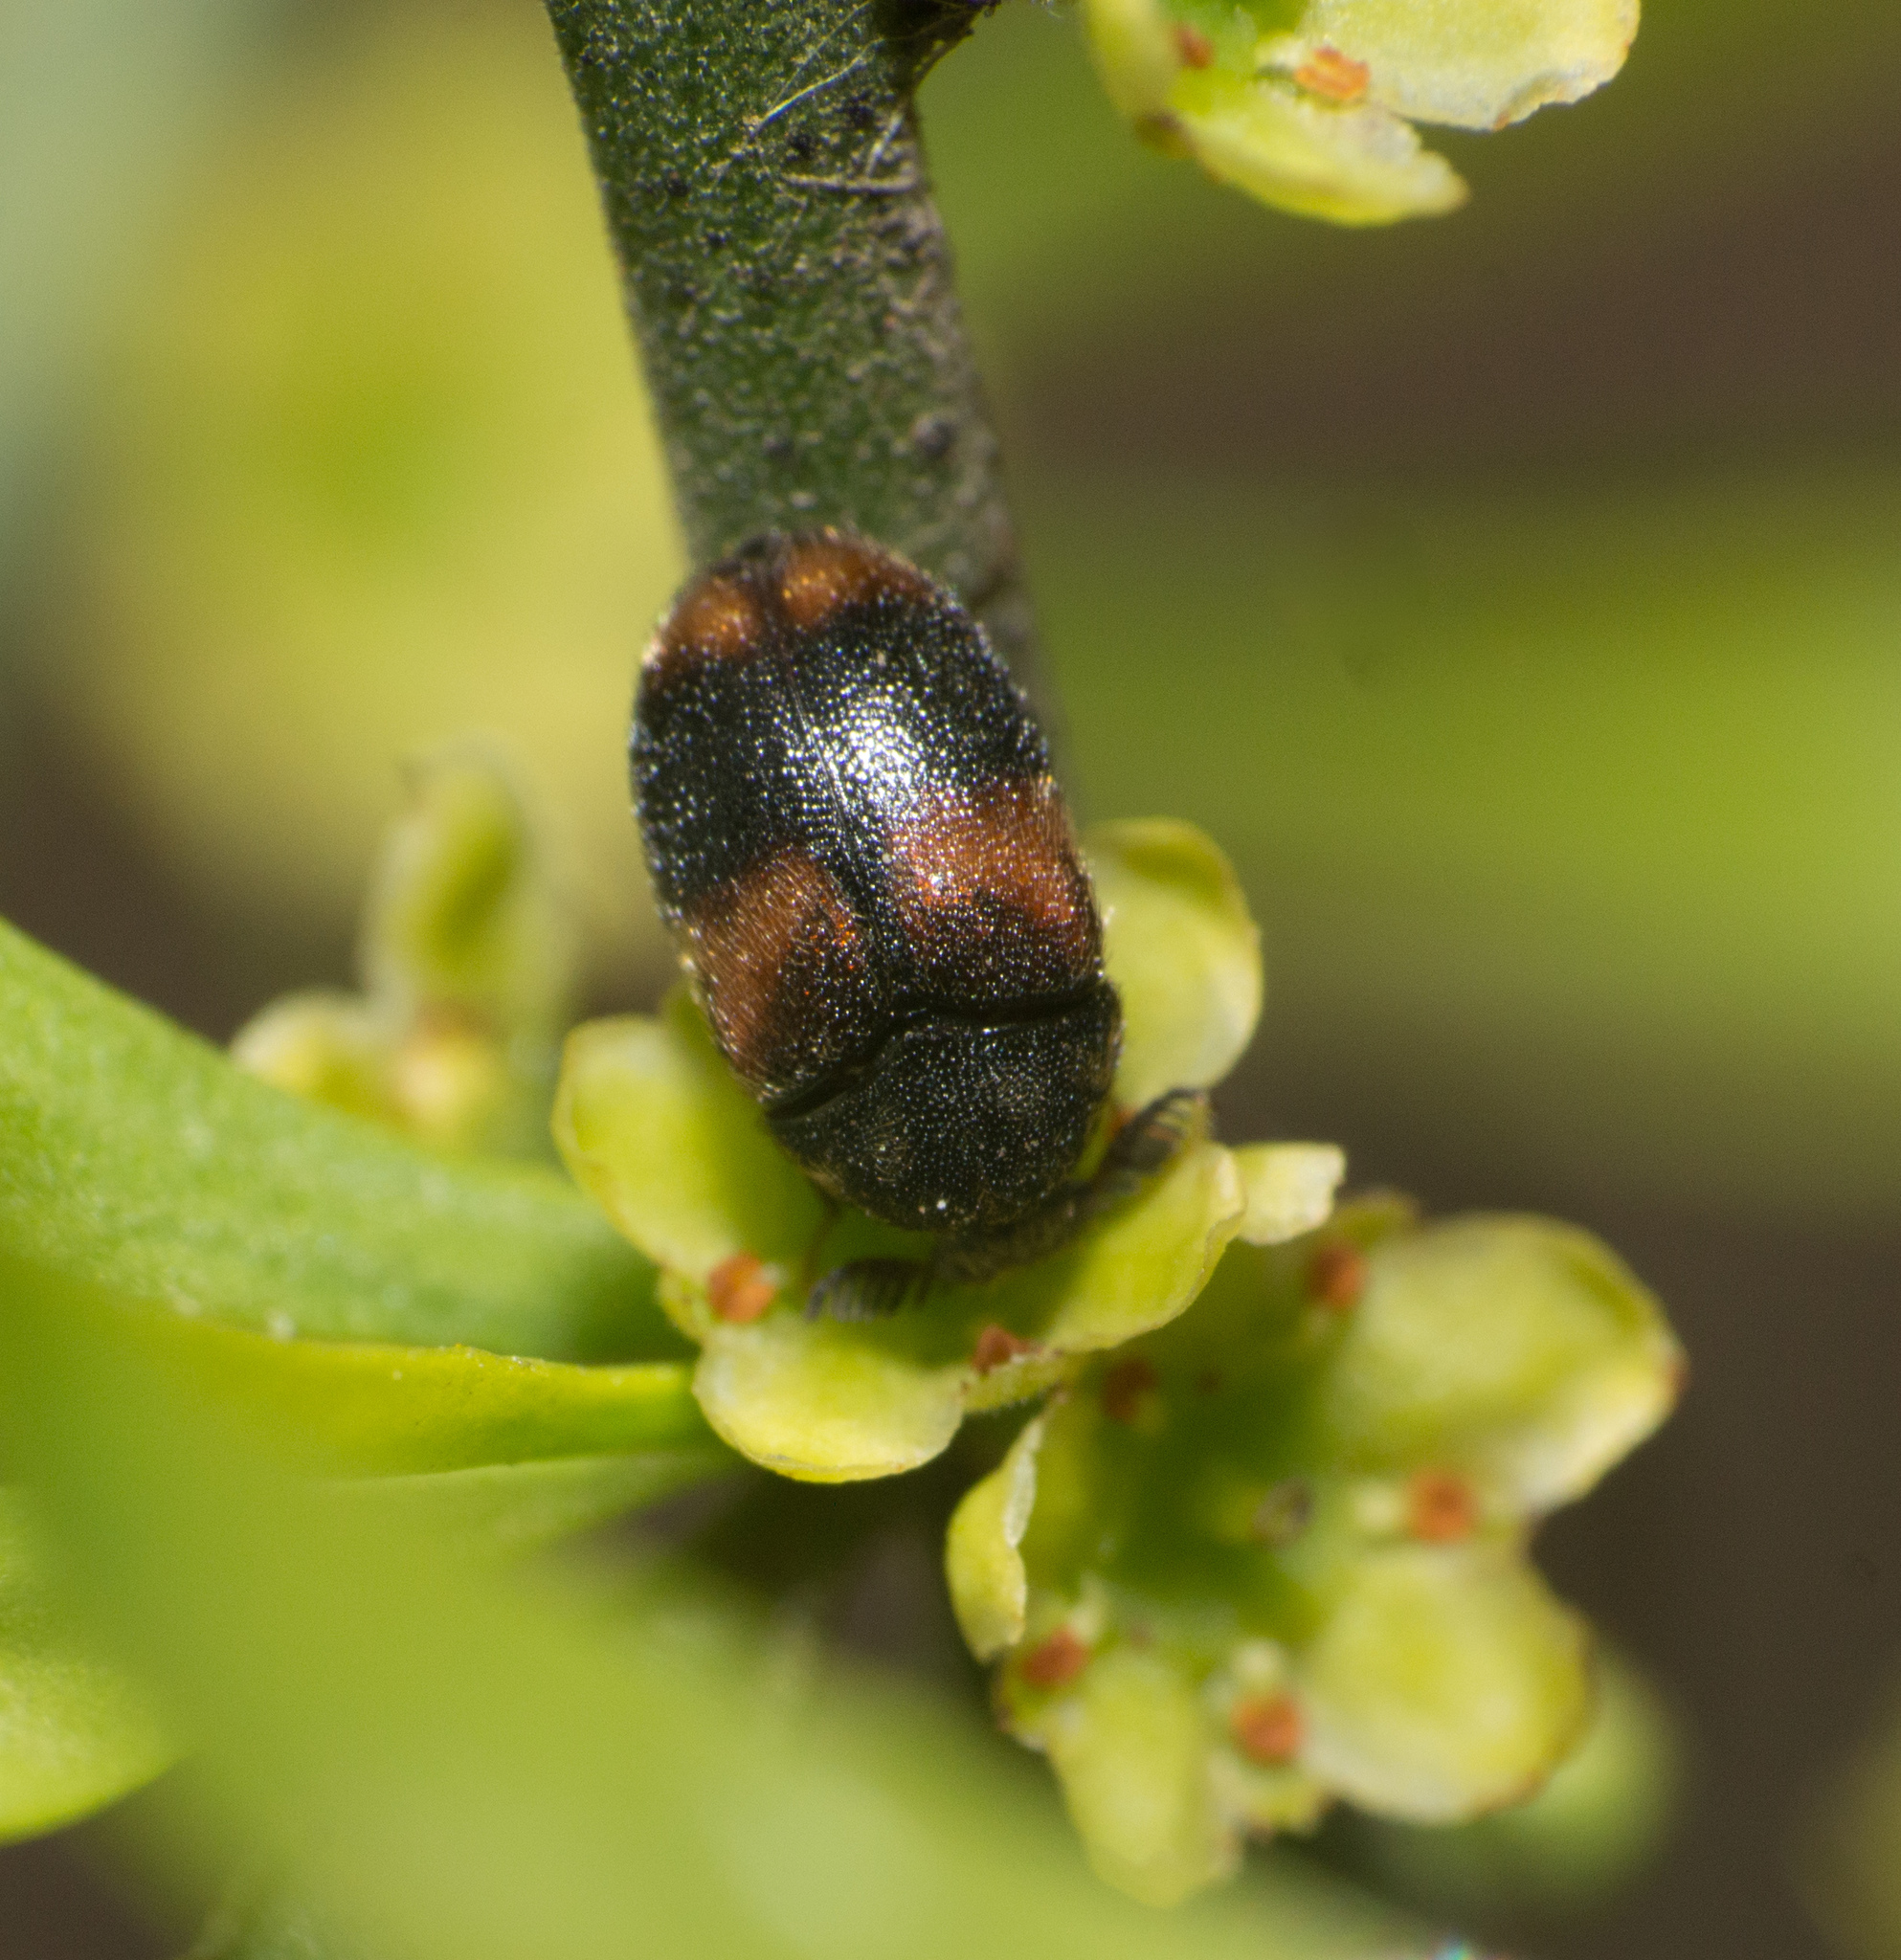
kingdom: Animalia
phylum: Arthropoda
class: Insecta
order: Coleoptera
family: Dermestidae
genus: Trogoderma
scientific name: Trogoderma
